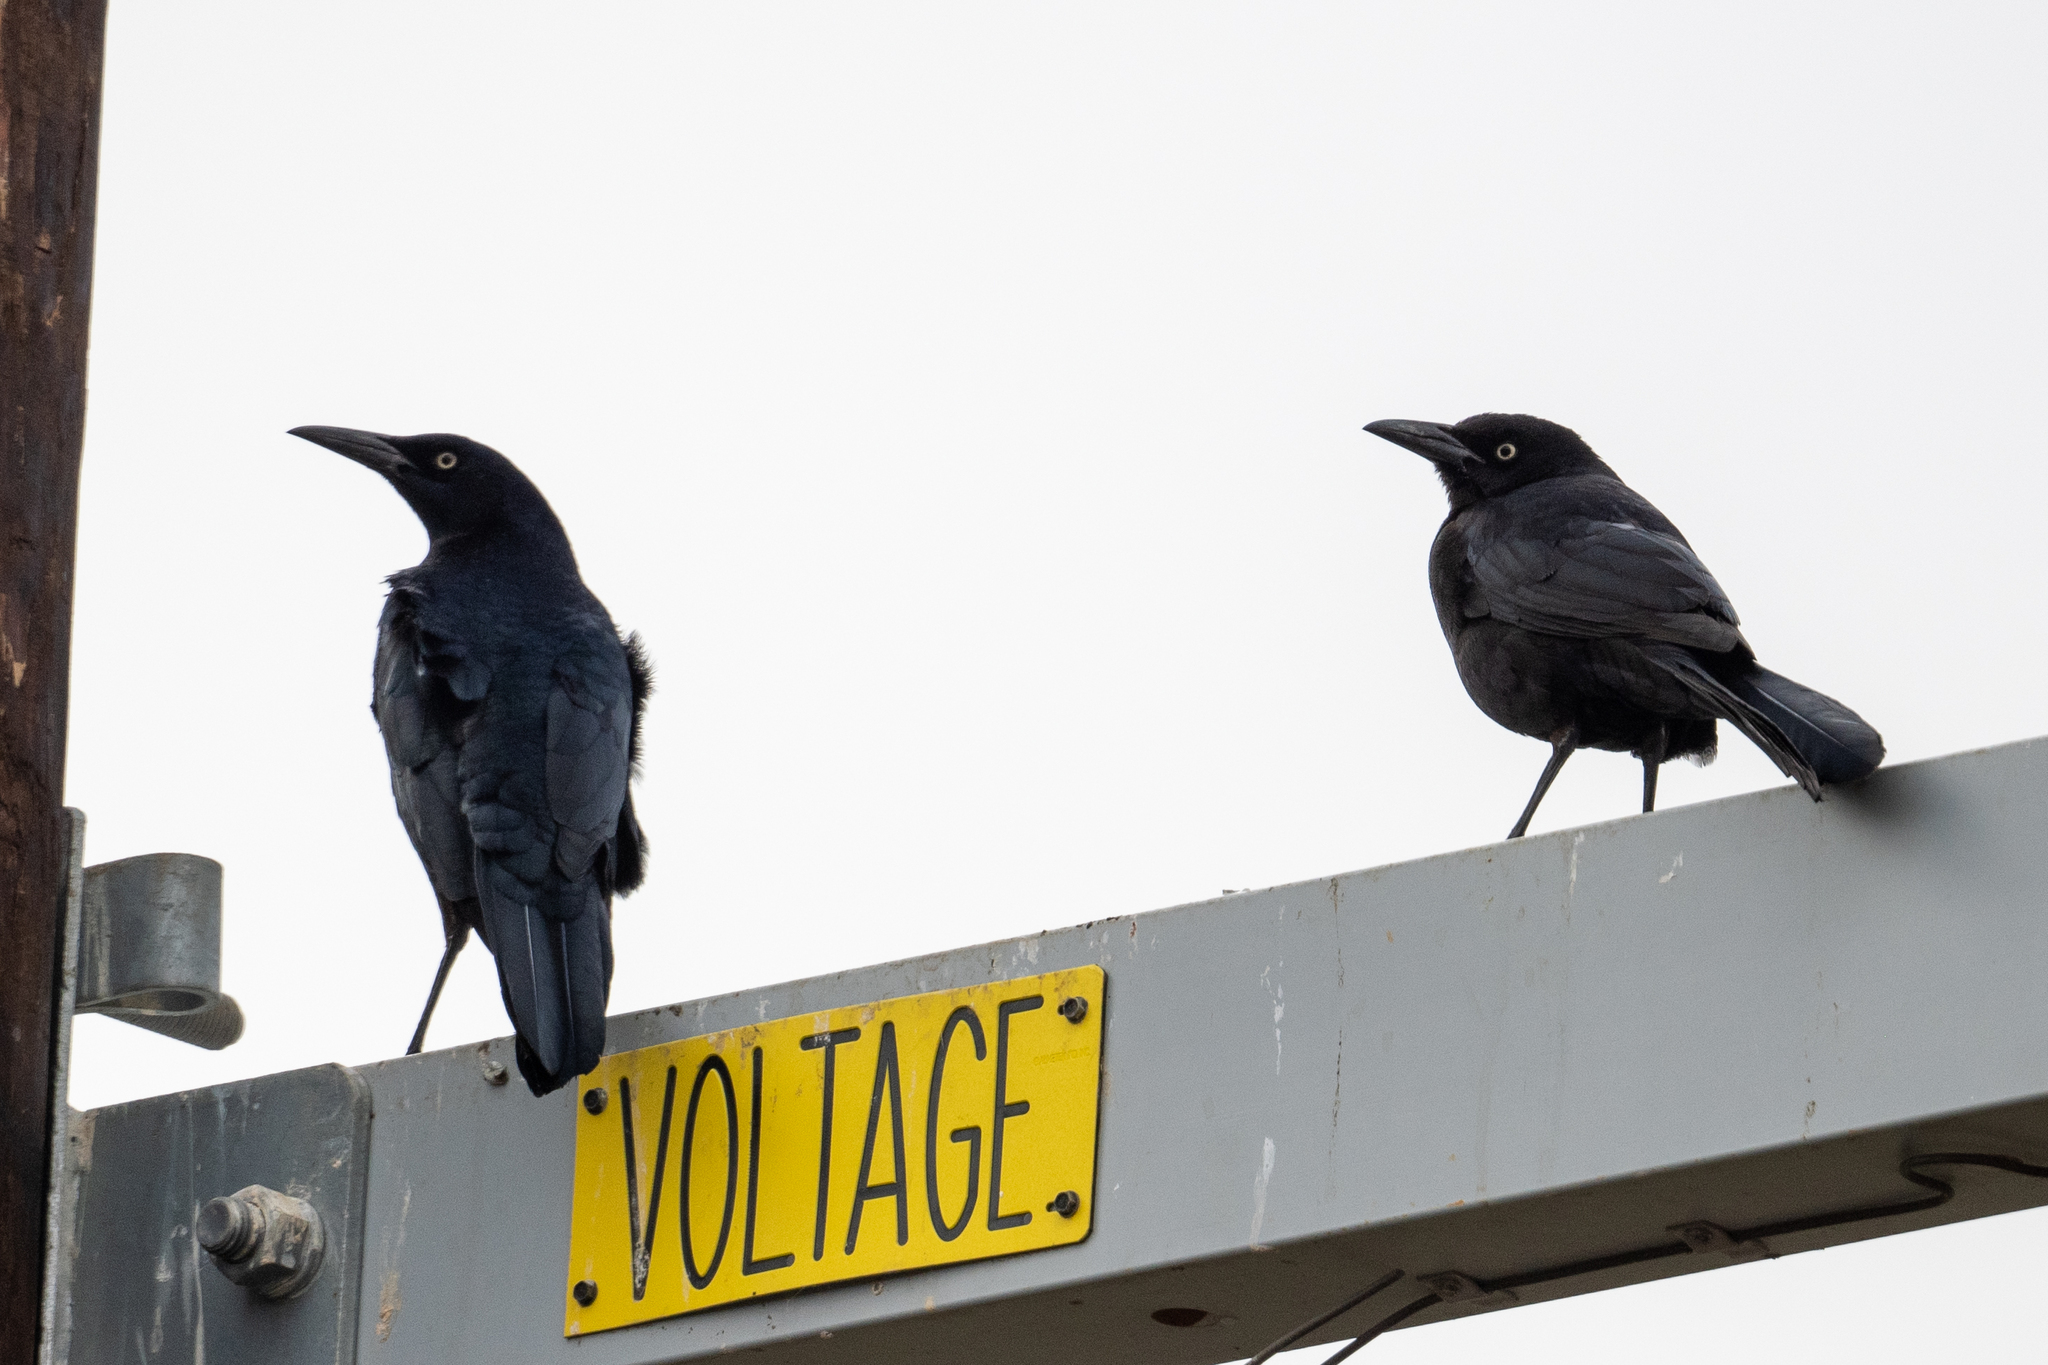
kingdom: Animalia
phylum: Chordata
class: Aves
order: Passeriformes
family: Icteridae
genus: Quiscalus
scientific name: Quiscalus mexicanus
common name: Great-tailed grackle
